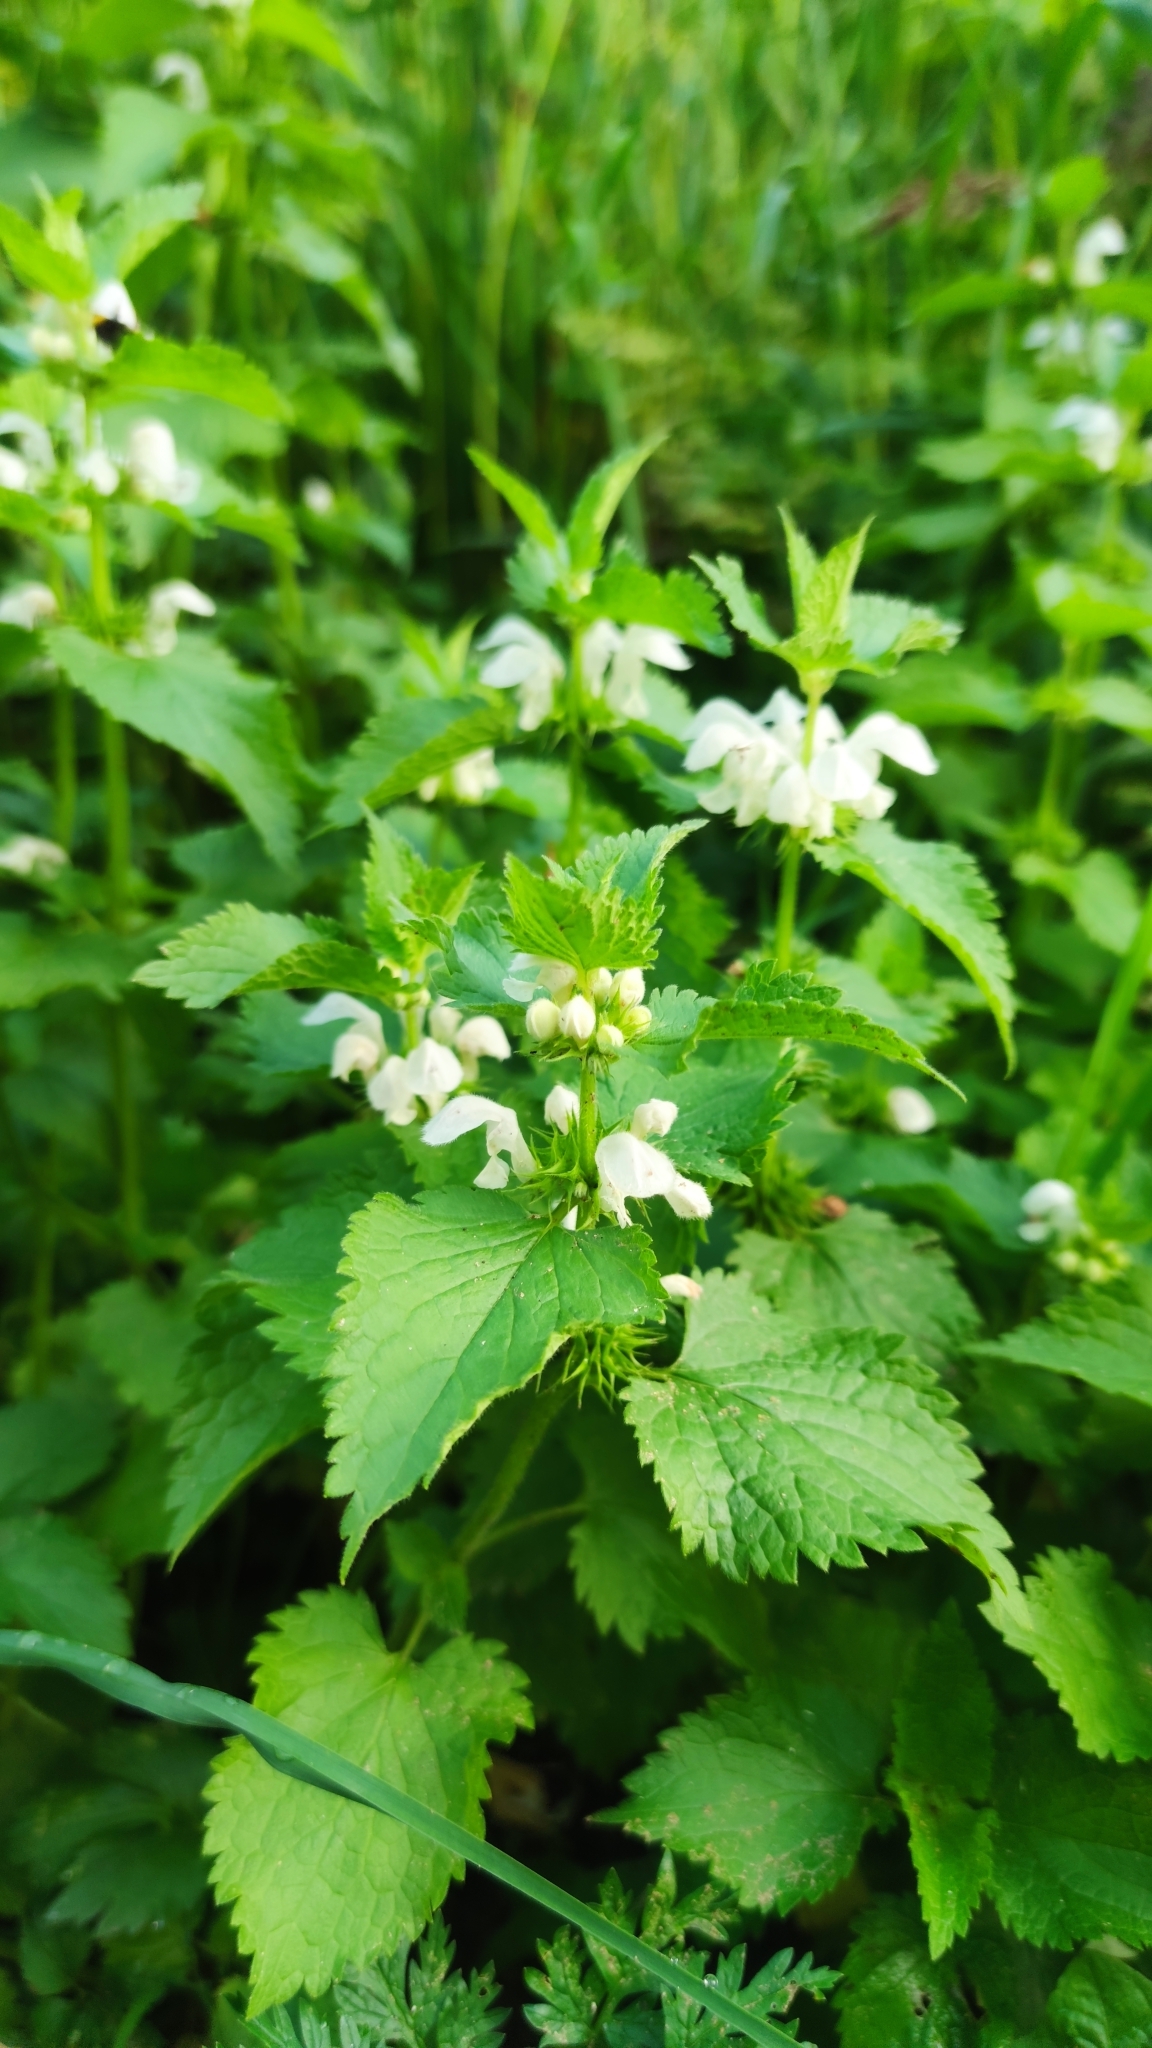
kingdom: Plantae
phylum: Tracheophyta
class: Magnoliopsida
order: Lamiales
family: Lamiaceae
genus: Lamium
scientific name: Lamium album
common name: White dead-nettle
